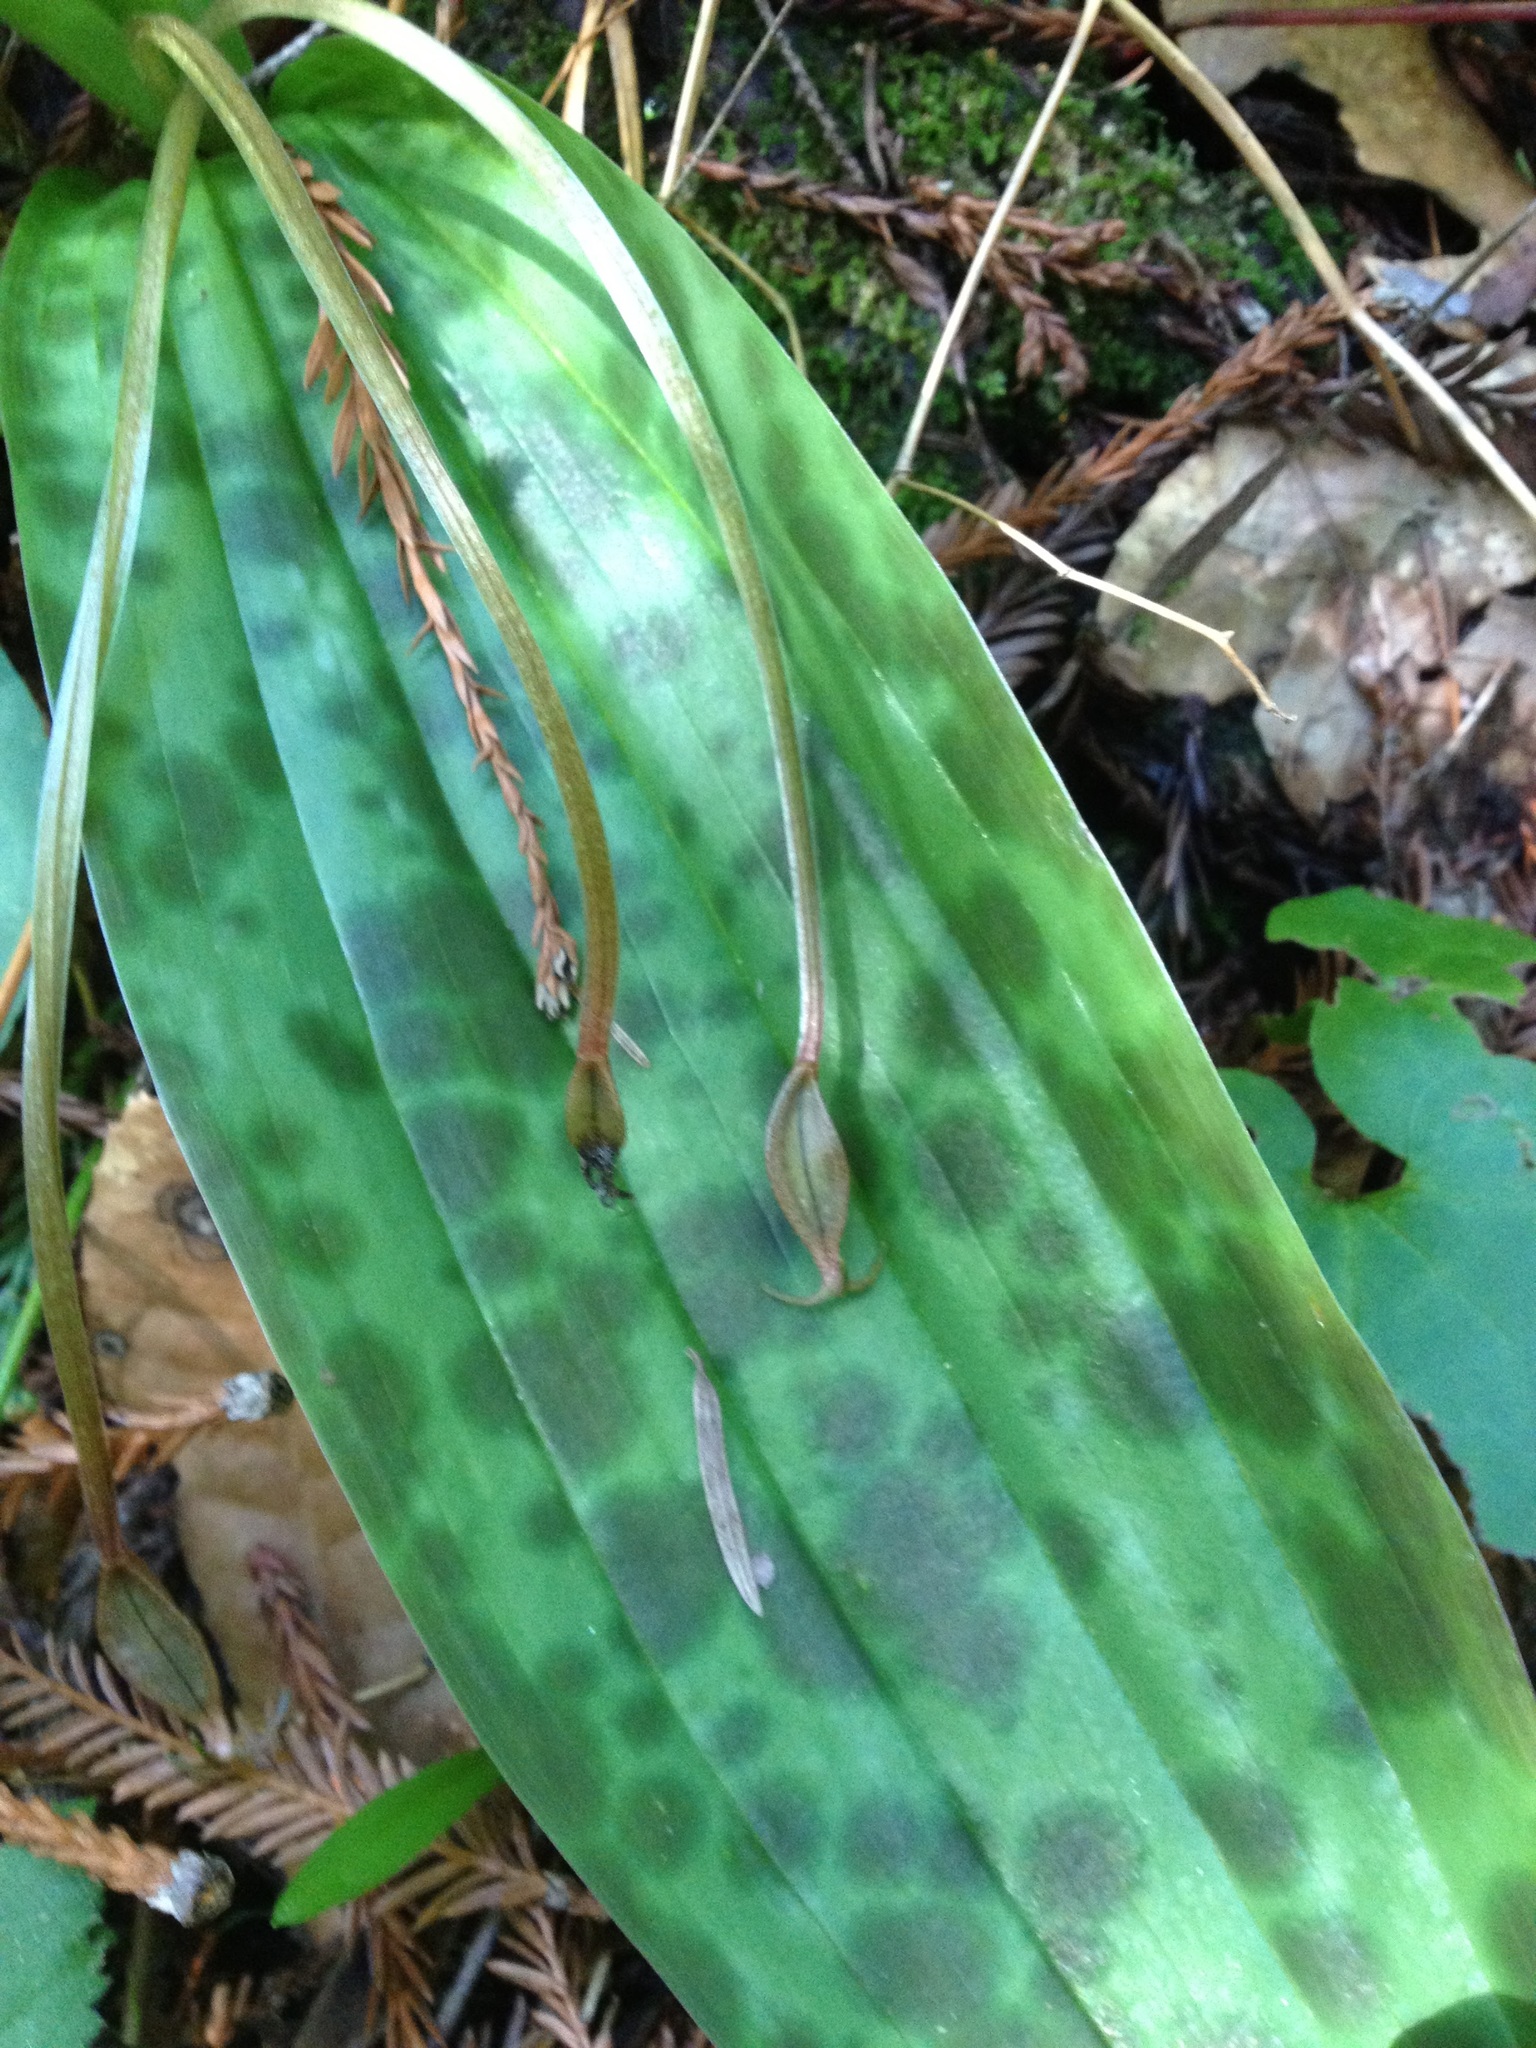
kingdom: Plantae
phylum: Tracheophyta
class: Liliopsida
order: Liliales
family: Liliaceae
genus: Scoliopus
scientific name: Scoliopus bigelovii
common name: Foetid adder's-tongue
